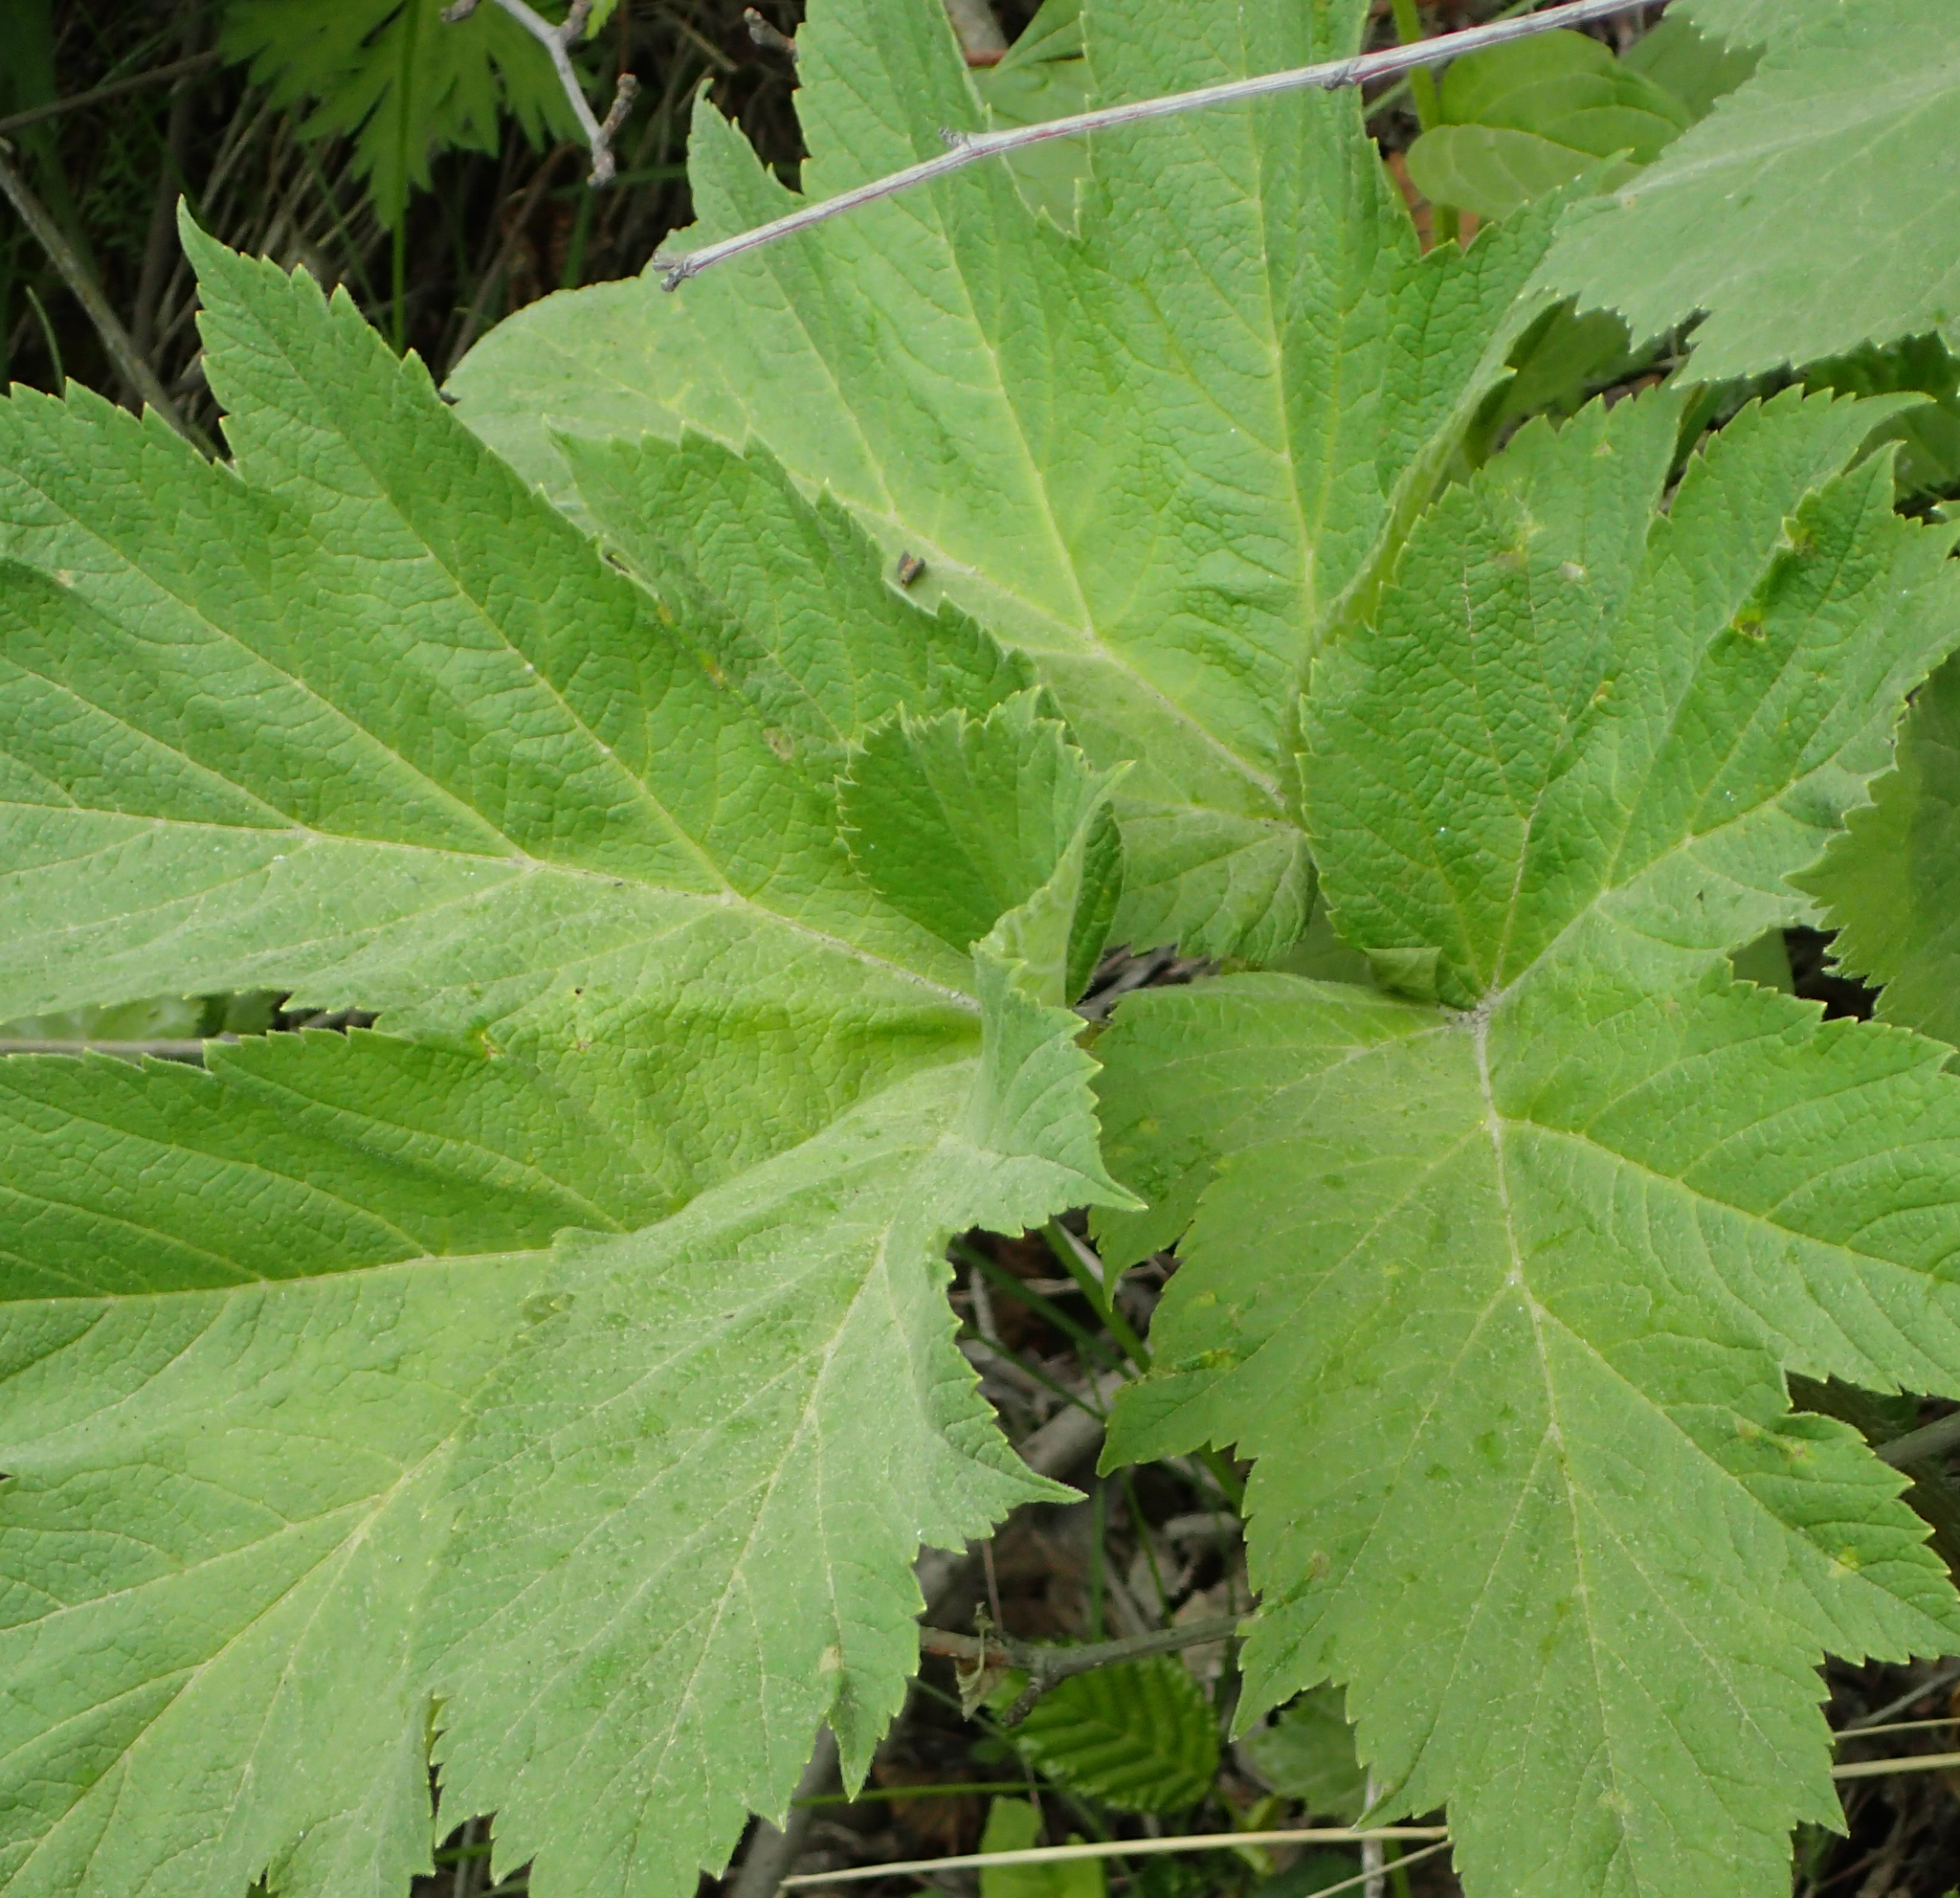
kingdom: Plantae
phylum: Tracheophyta
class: Magnoliopsida
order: Apiales
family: Apiaceae
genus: Heracleum
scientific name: Heracleum maximum
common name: American cow parsnip
